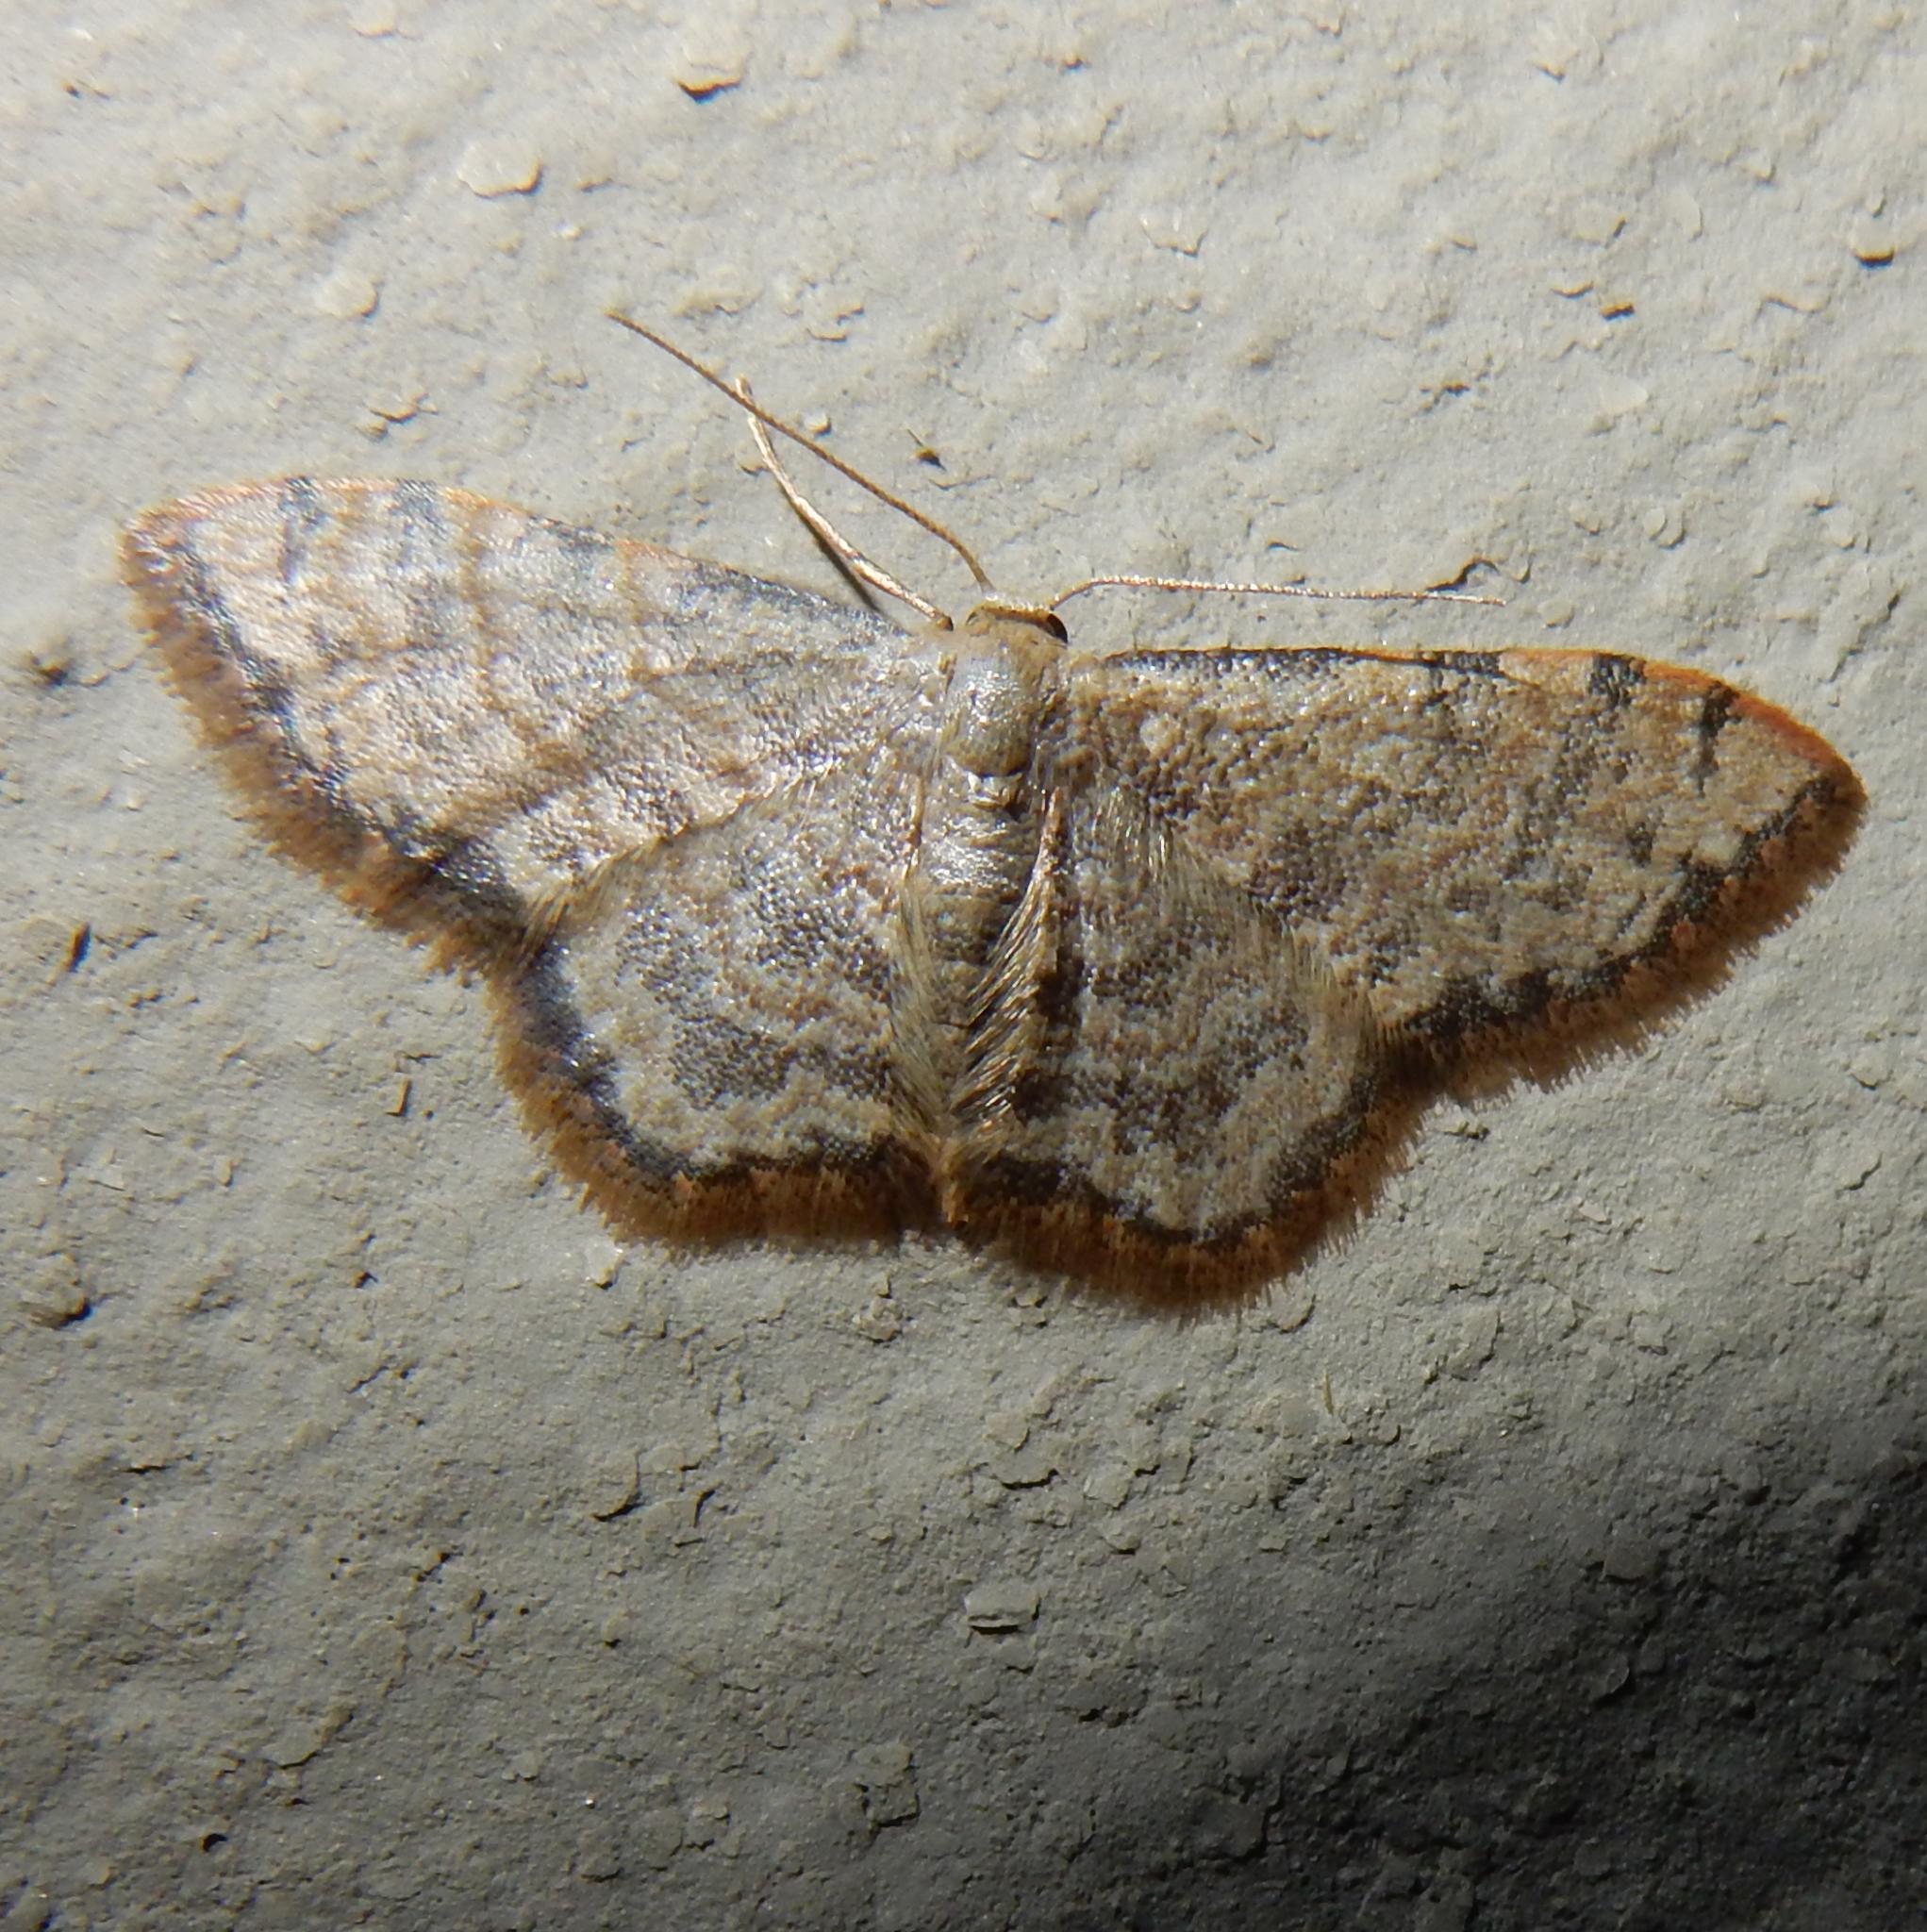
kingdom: Animalia
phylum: Arthropoda
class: Insecta
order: Lepidoptera
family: Geometridae
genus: Idaea
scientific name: Idaea sublimbaria
